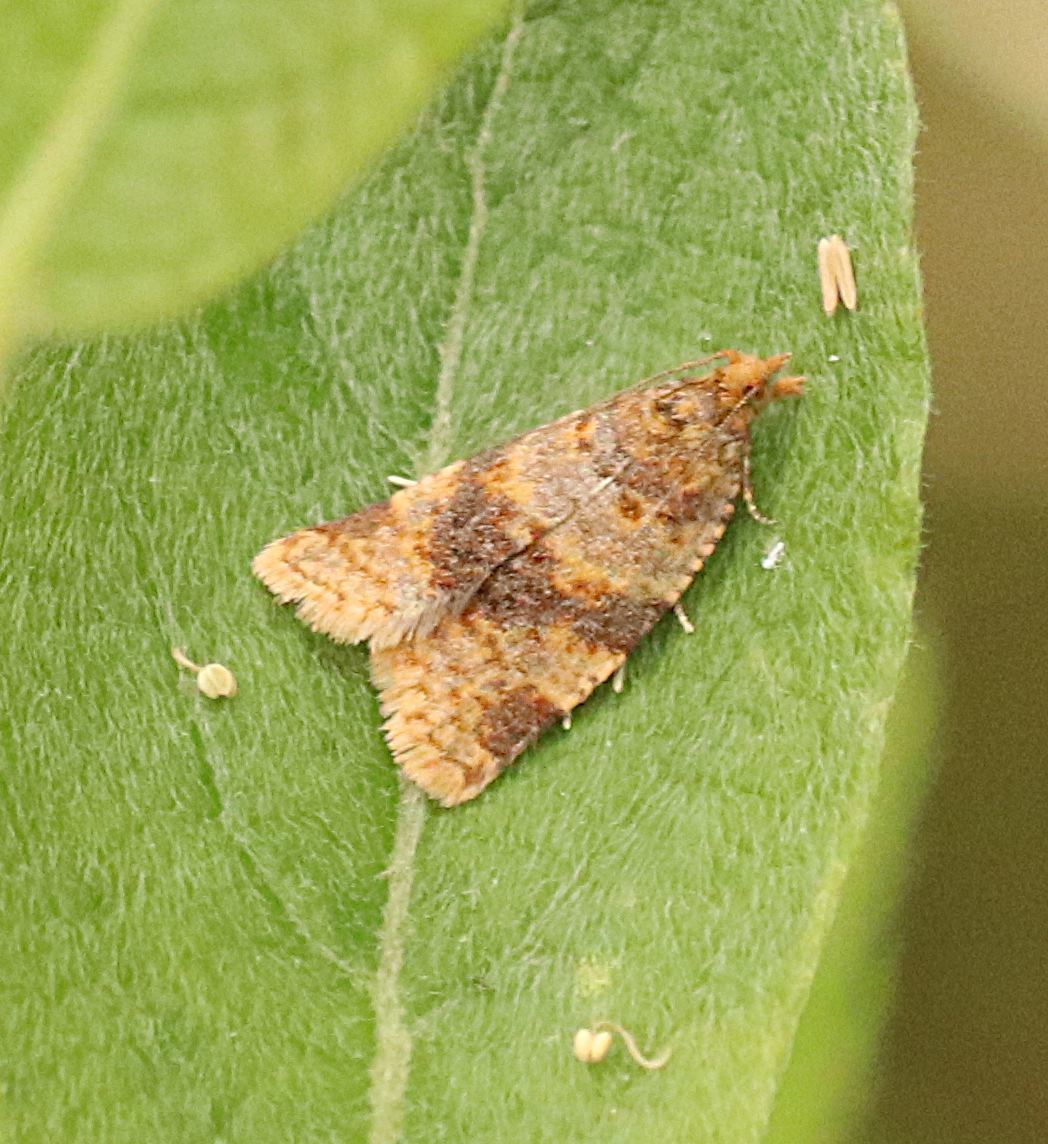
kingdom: Animalia
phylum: Arthropoda
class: Insecta
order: Lepidoptera
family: Tortricidae
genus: Epagoge
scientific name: Epagoge grotiana
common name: Brown-barred twist
